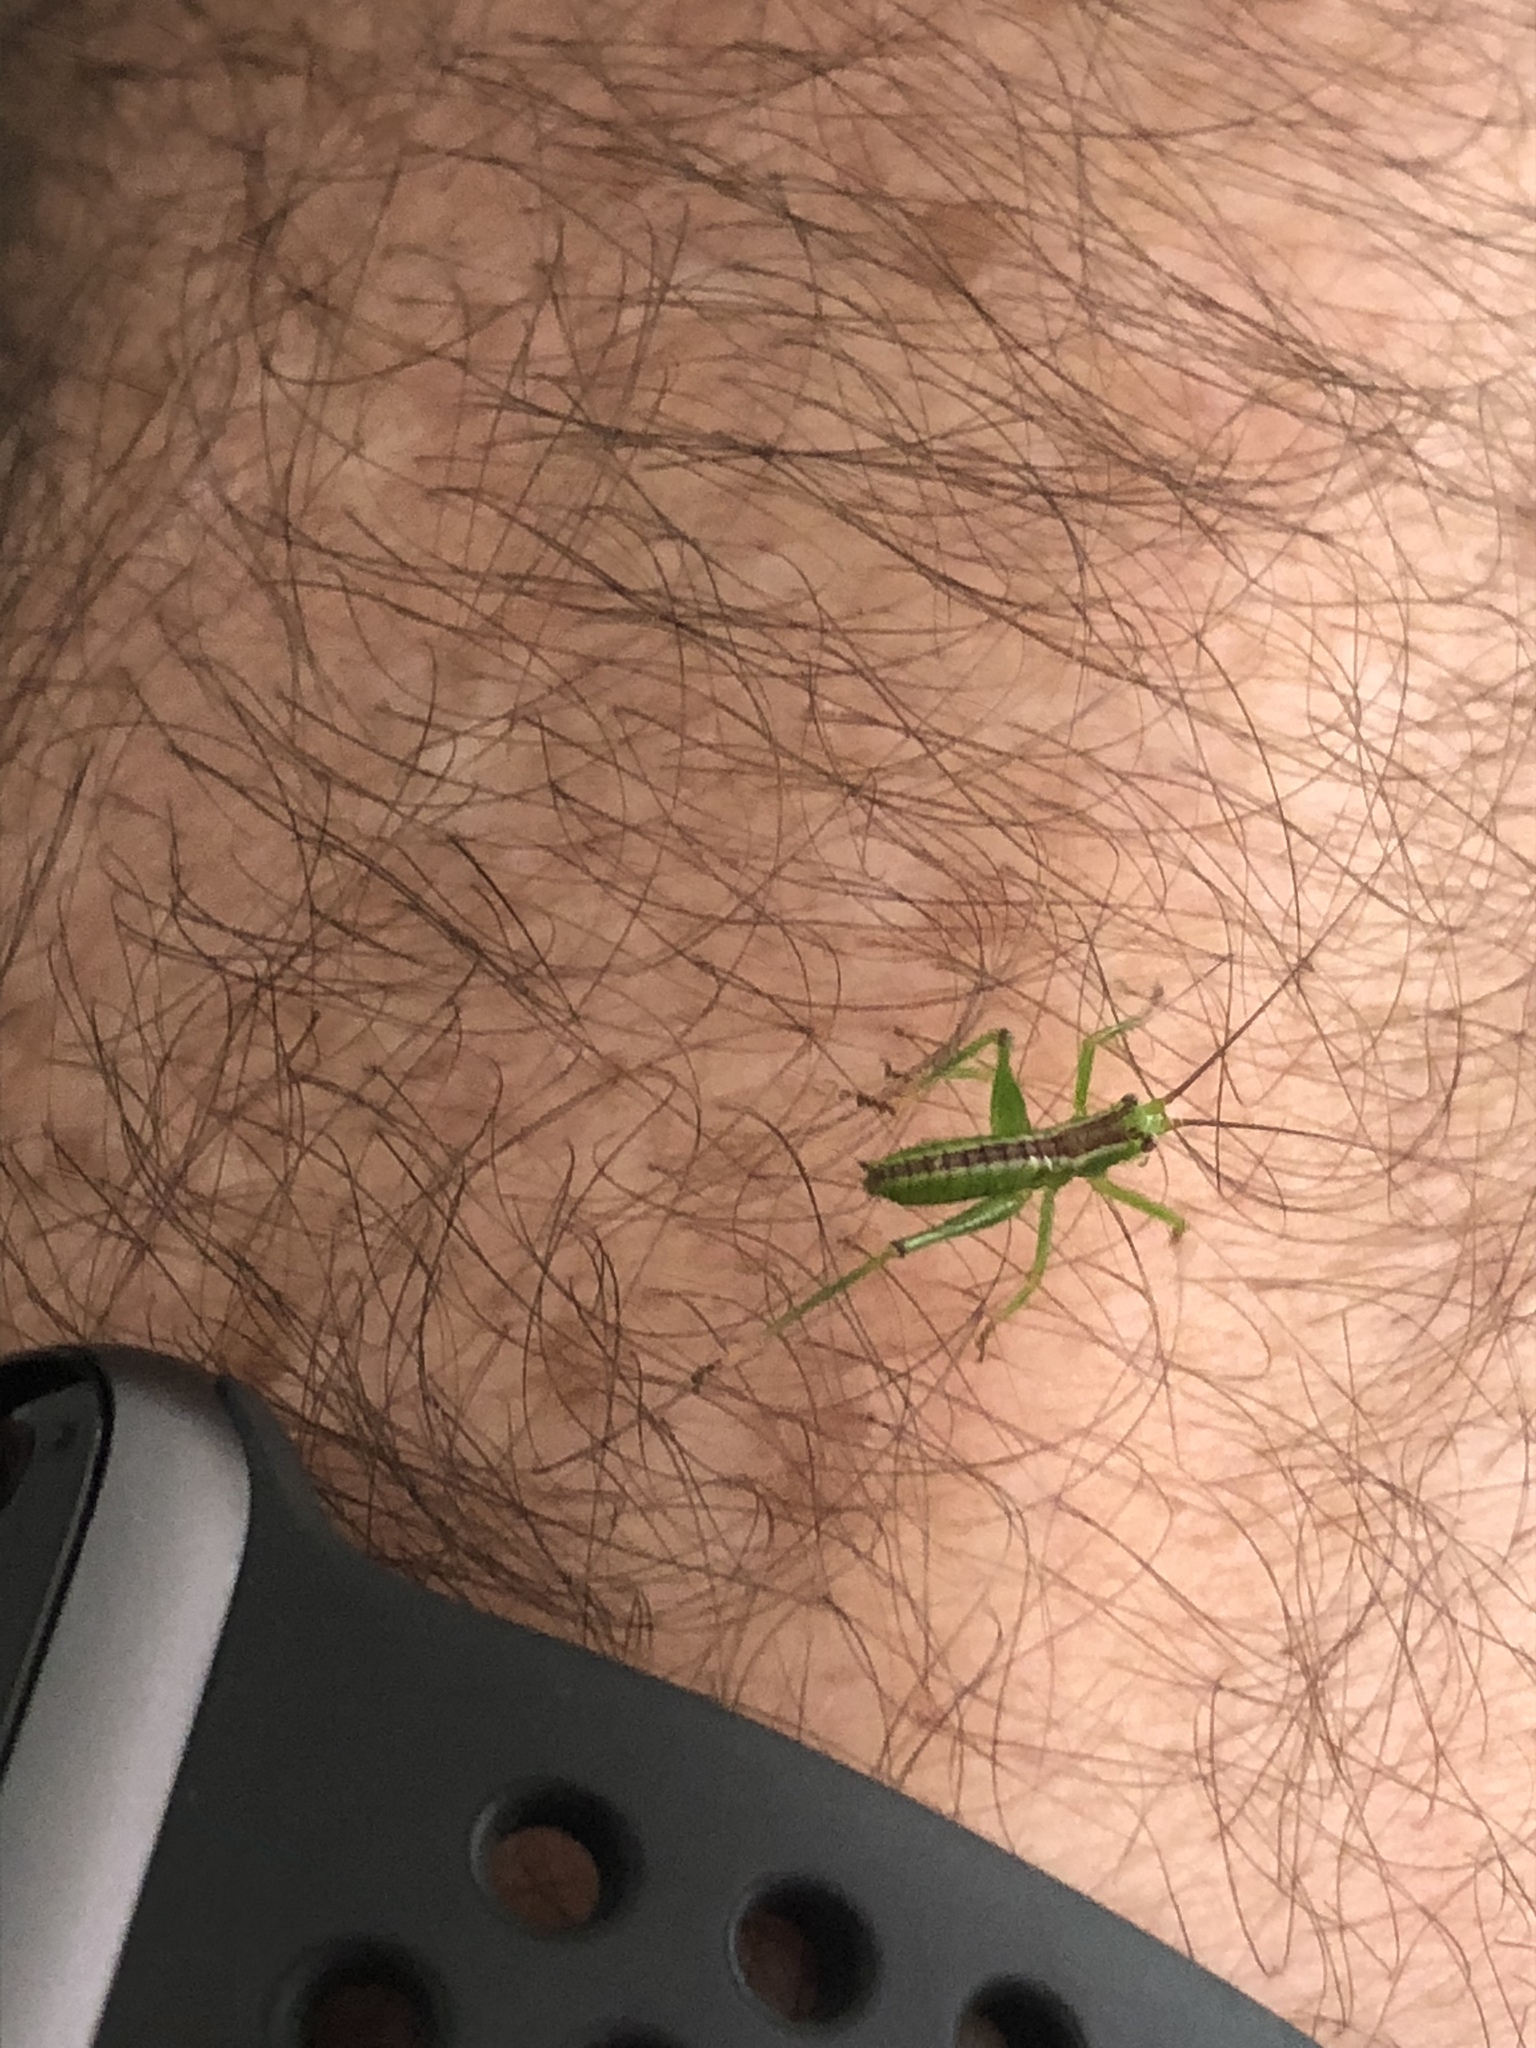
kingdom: Animalia
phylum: Arthropoda
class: Insecta
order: Orthoptera
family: Tettigoniidae
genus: Conocephalomima
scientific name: Conocephalomima barameda
